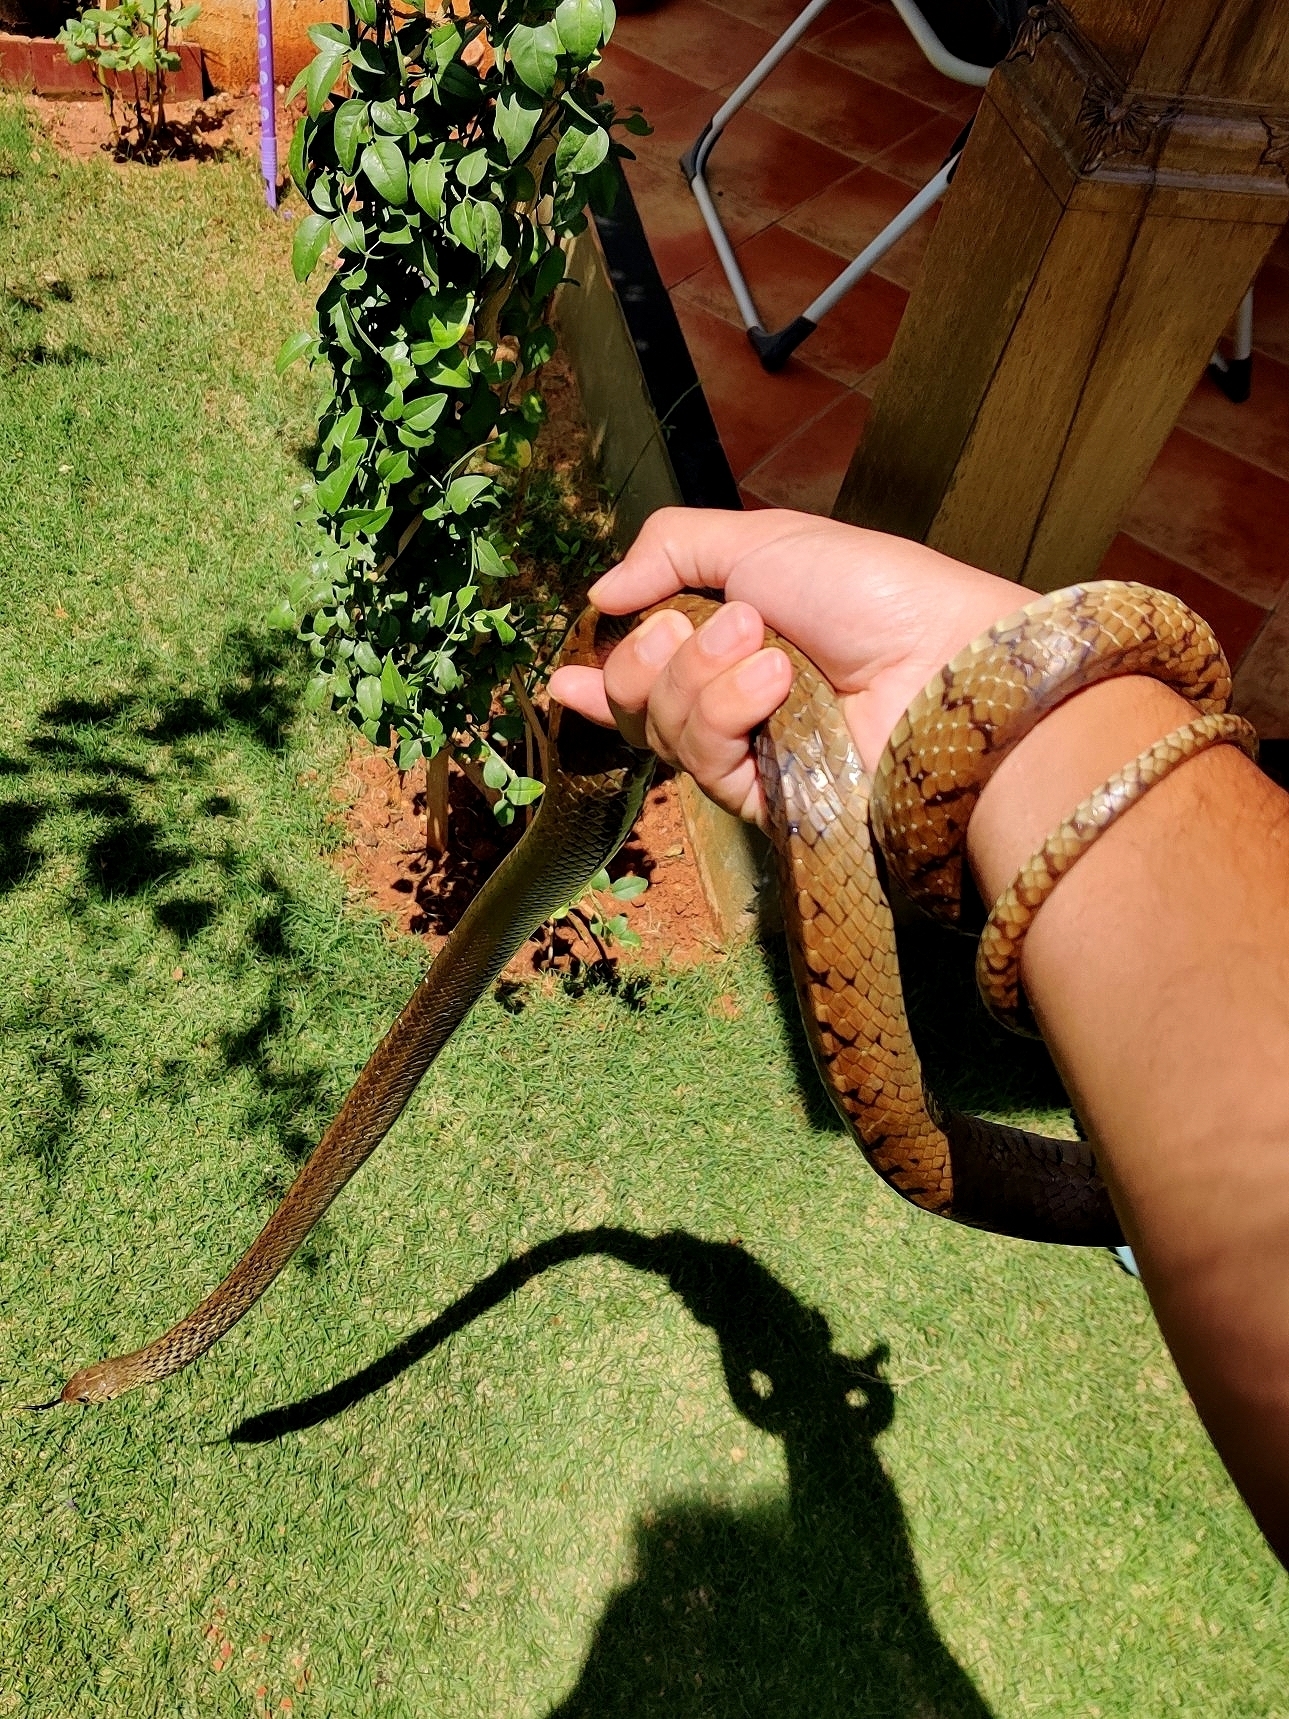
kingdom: Animalia
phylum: Chordata
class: Squamata
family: Colubridae
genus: Ptyas
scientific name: Ptyas mucosa
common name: Oriental ratsnake
